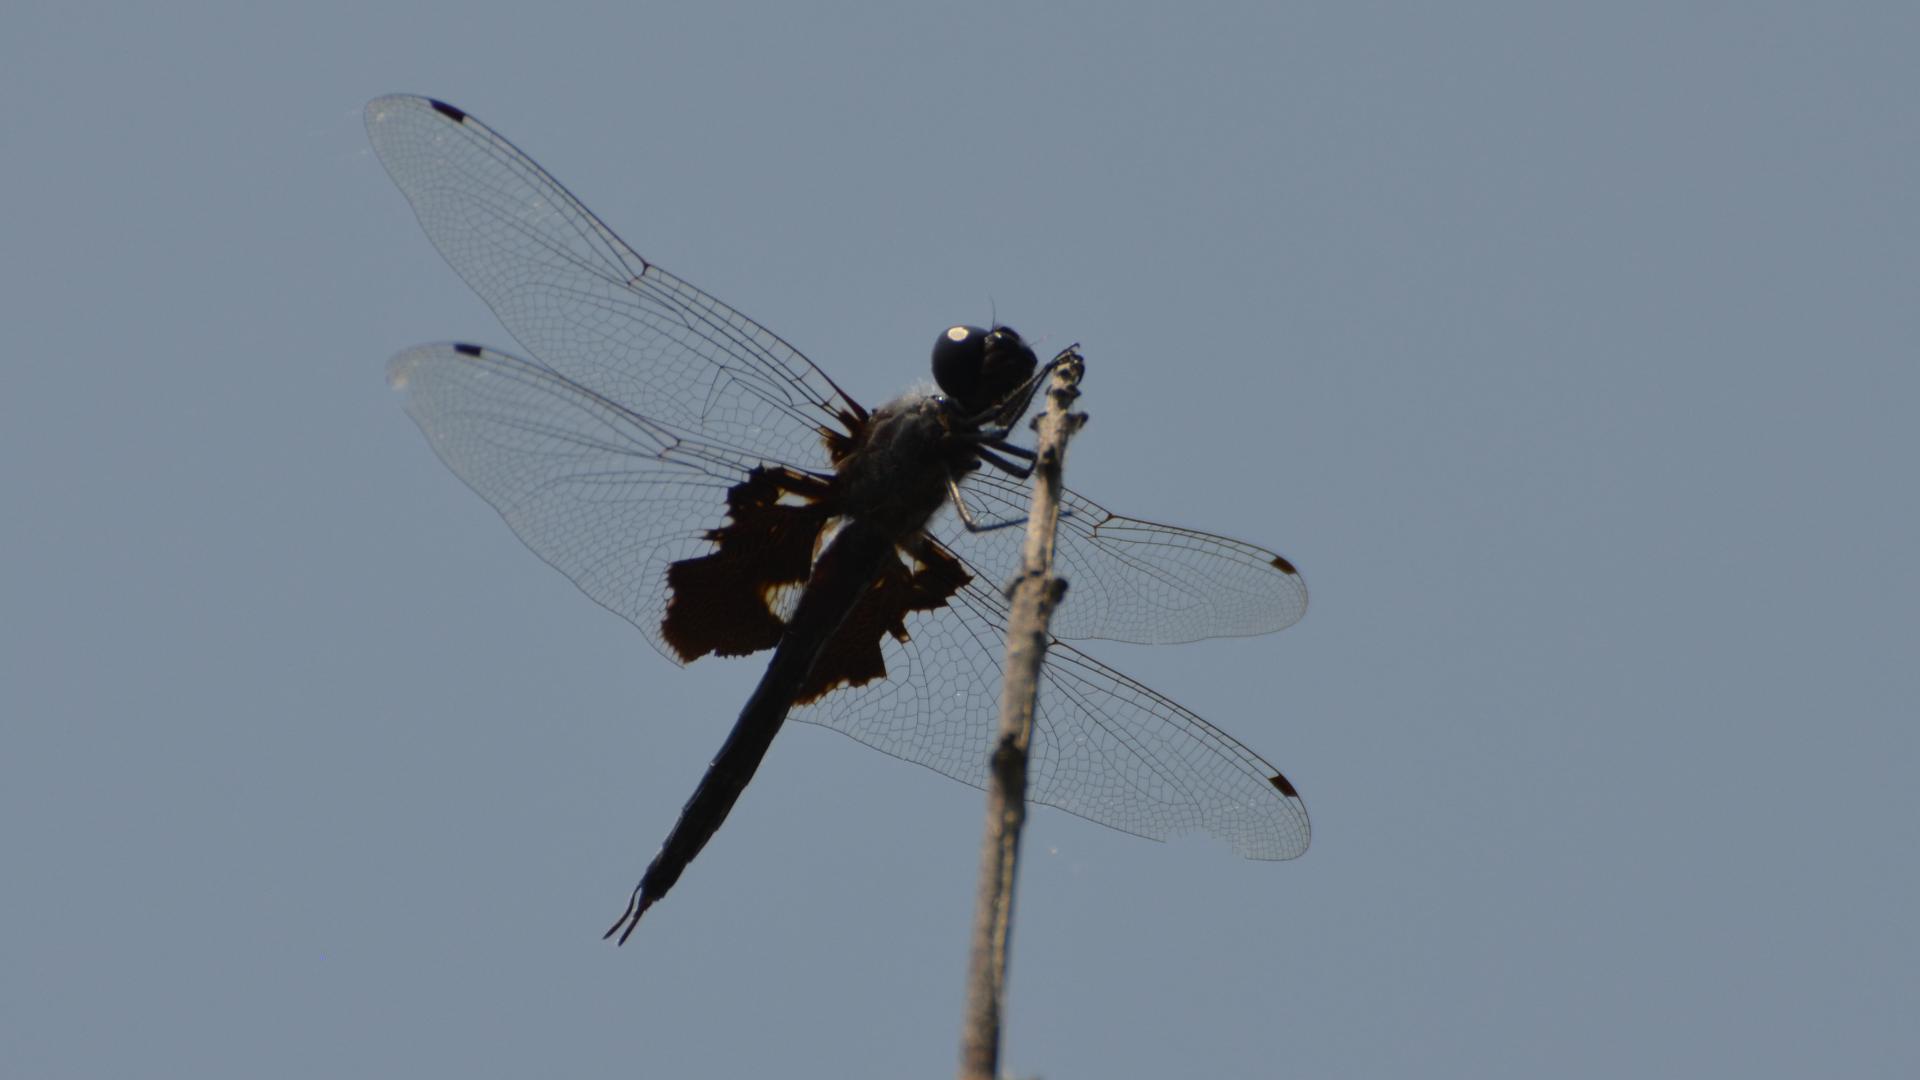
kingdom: Animalia
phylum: Arthropoda
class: Insecta
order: Odonata
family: Libellulidae
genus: Tramea
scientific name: Tramea lacerata
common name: Black saddlebags
